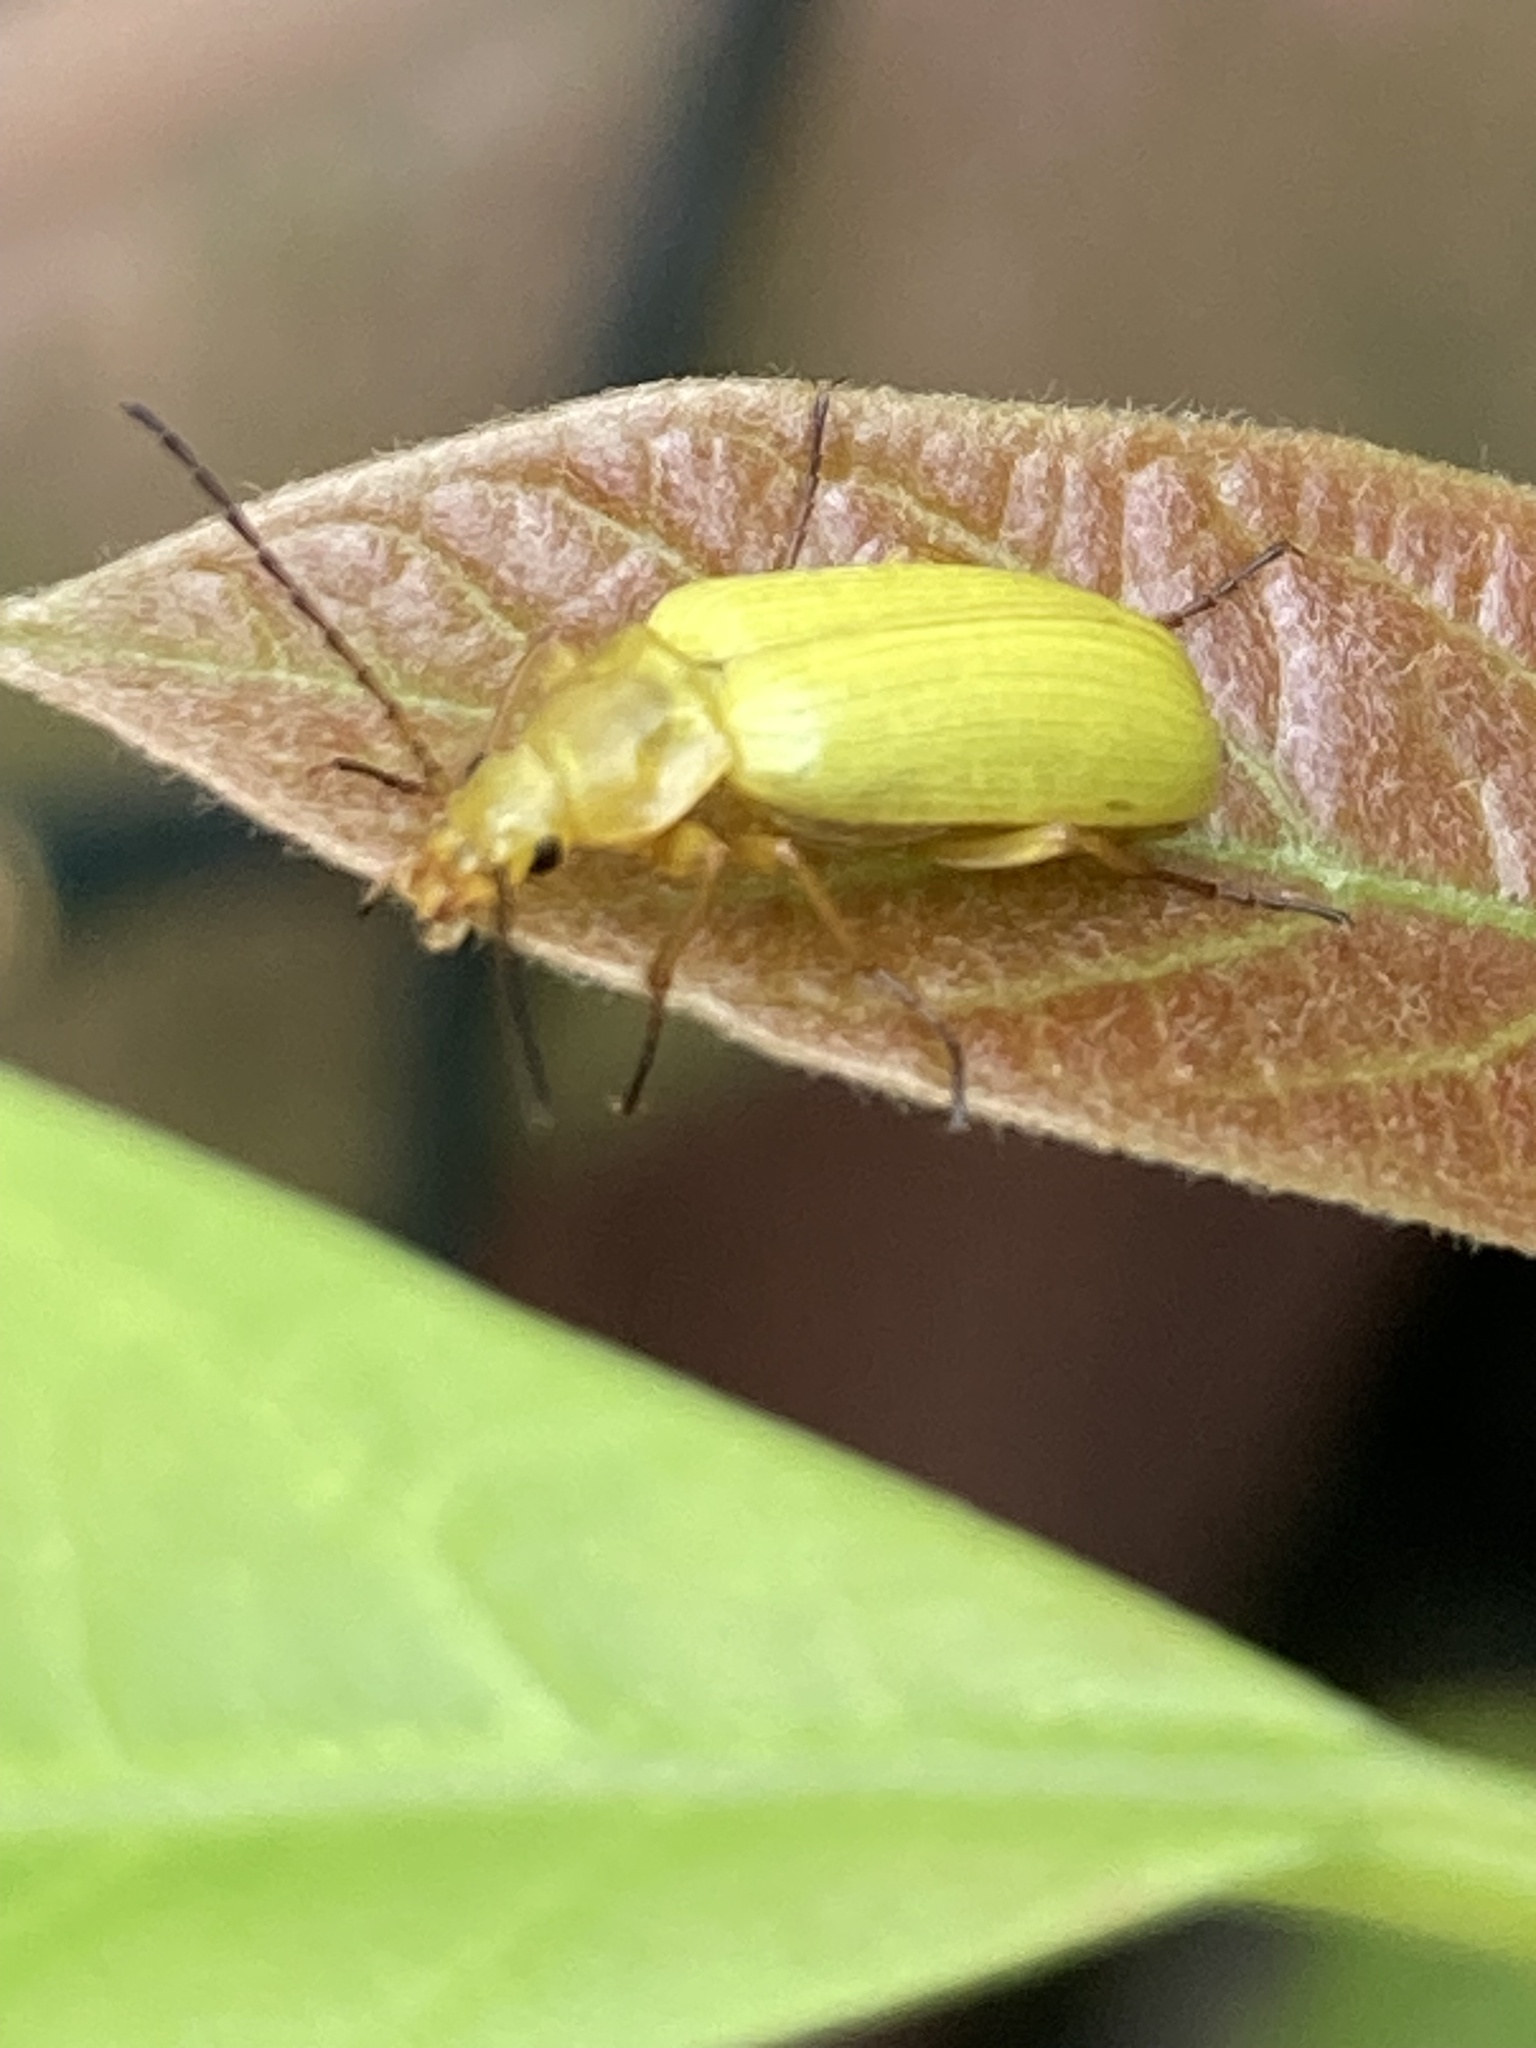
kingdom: Animalia
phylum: Arthropoda
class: Insecta
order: Coleoptera
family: Tenebrionidae
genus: Cteniopus
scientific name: Cteniopus sulphureus
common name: Sulphur beetle
